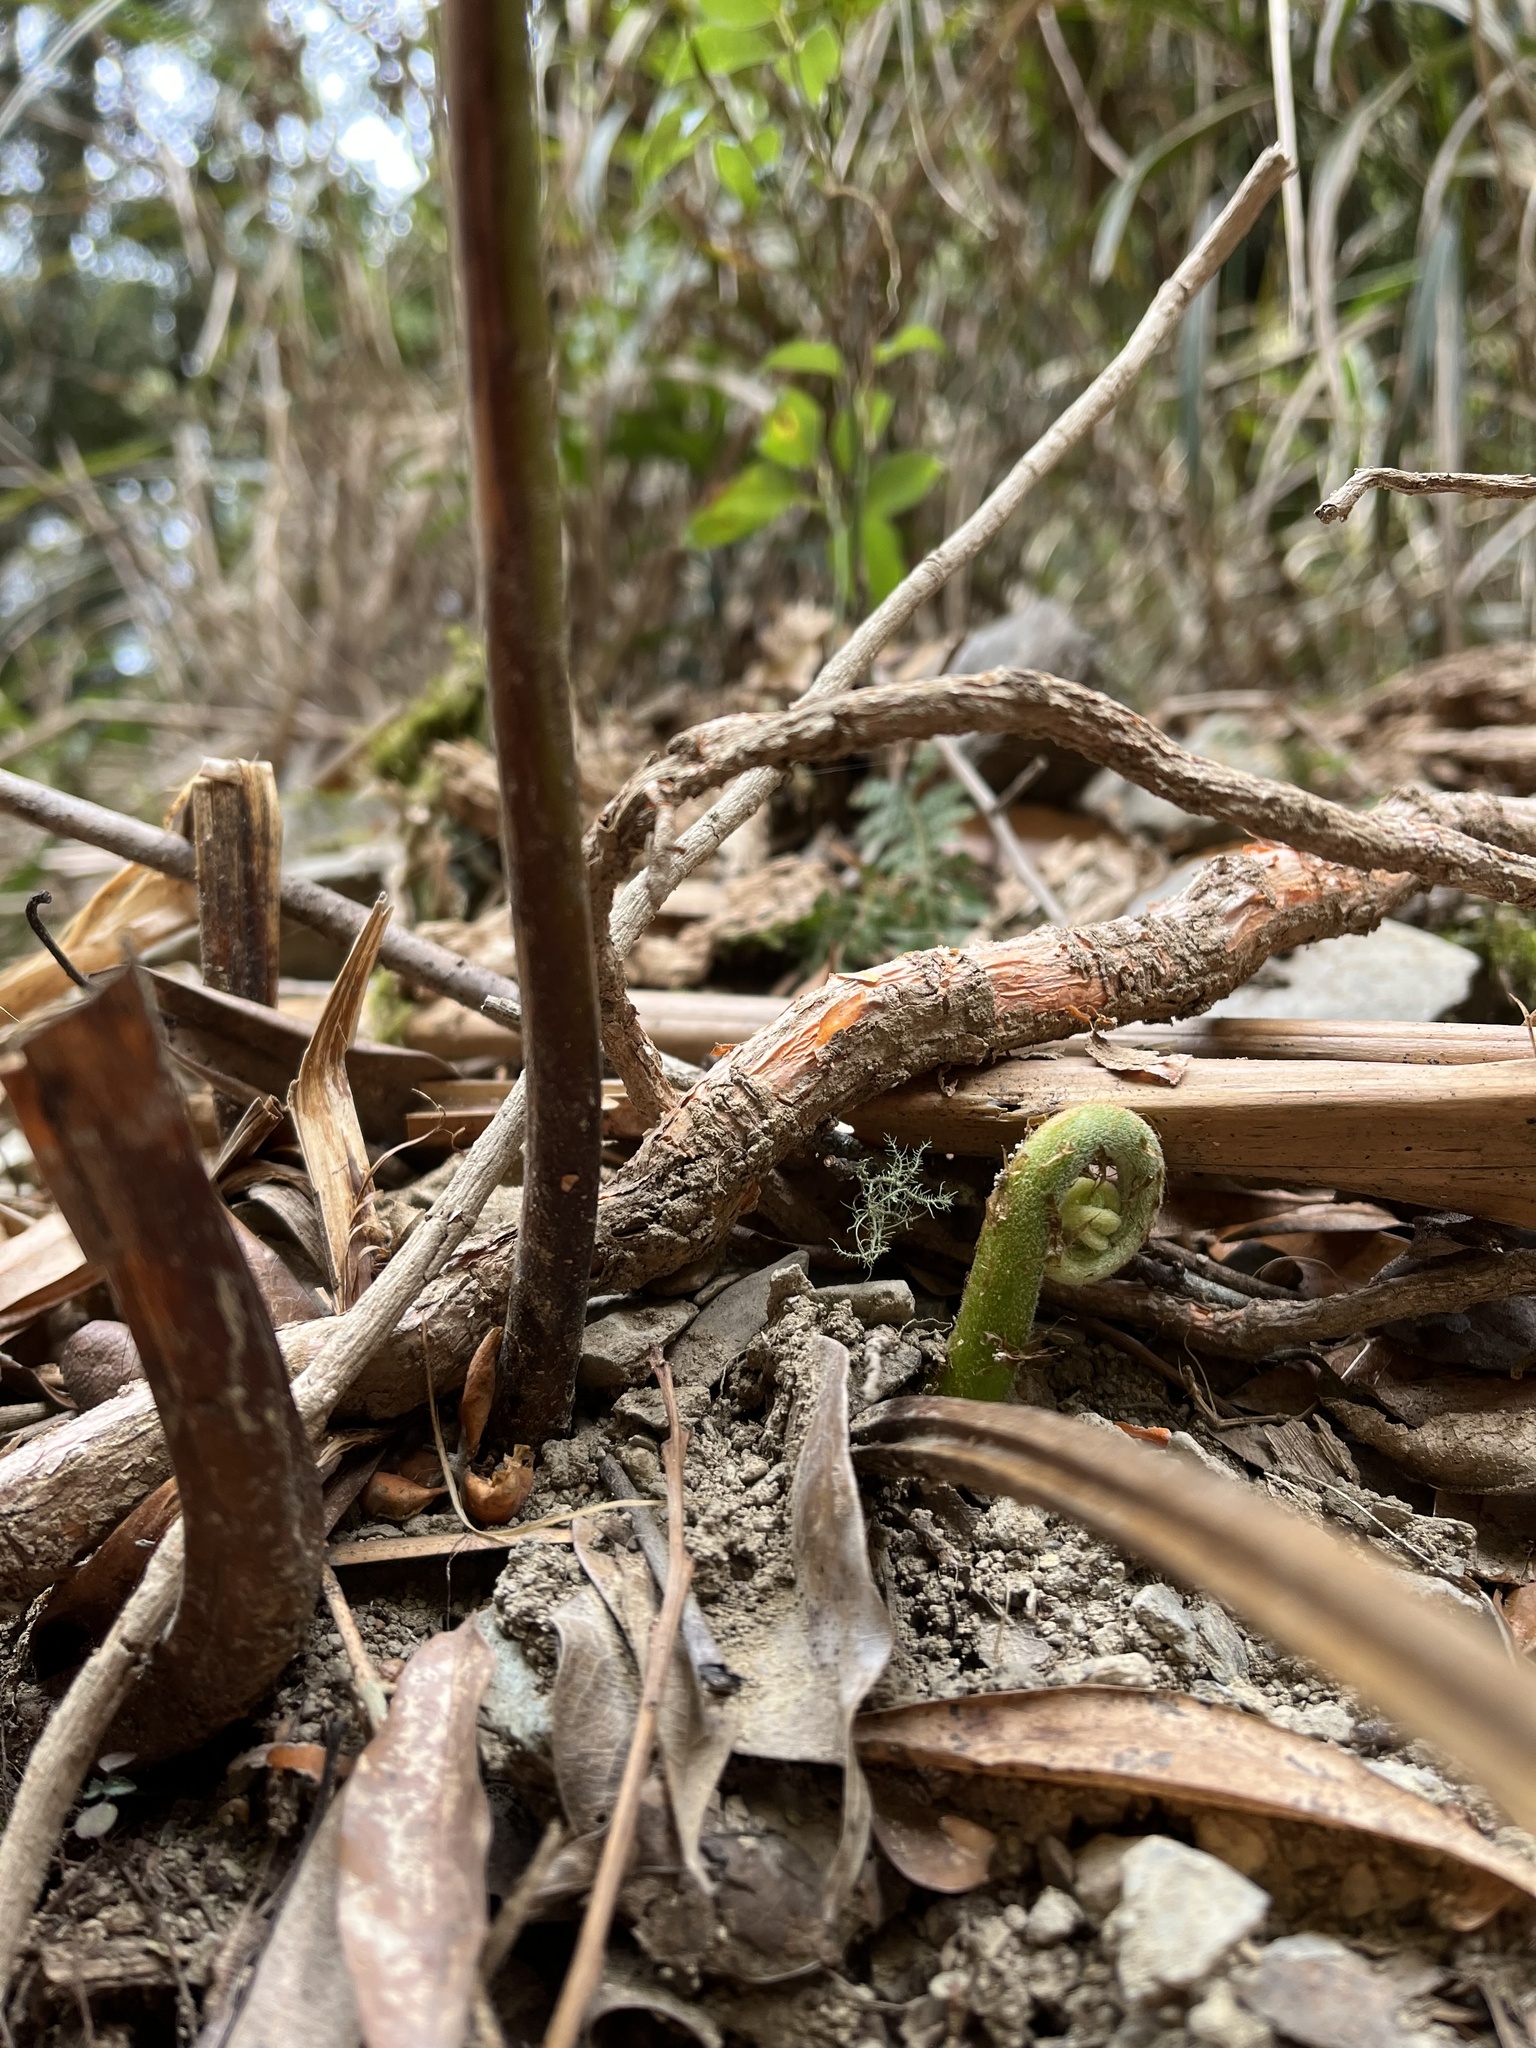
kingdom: Plantae
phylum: Tracheophyta
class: Polypodiopsida
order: Polypodiales
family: Pteridaceae
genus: Pteris
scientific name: Pteris wallichiana
